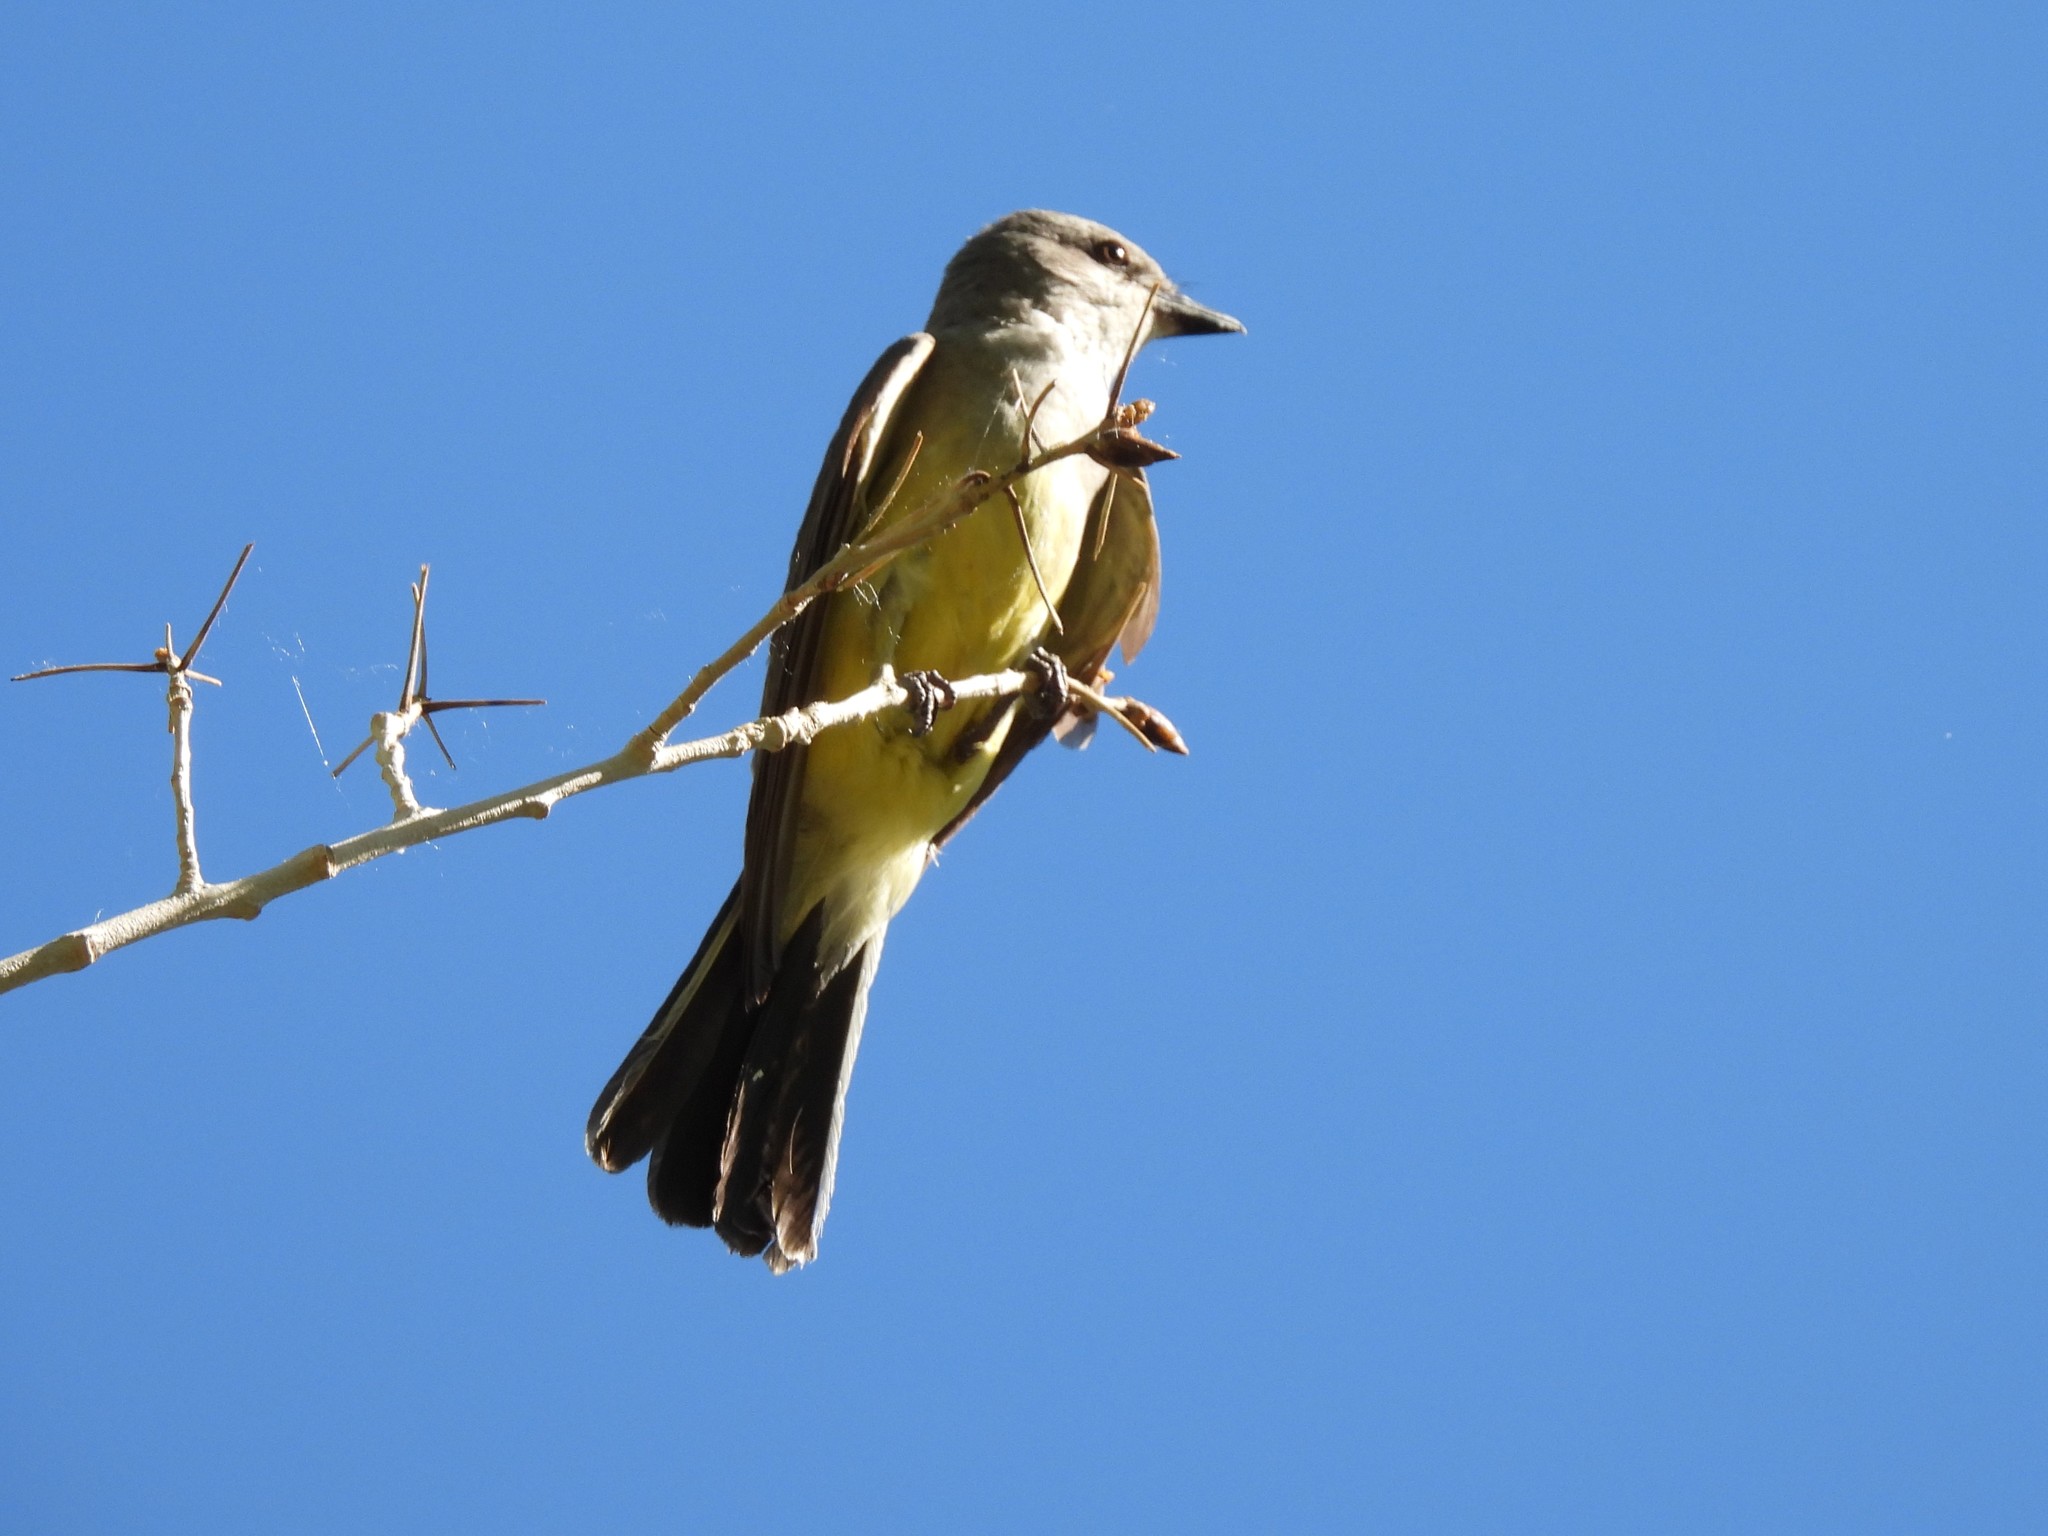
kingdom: Animalia
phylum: Chordata
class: Aves
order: Passeriformes
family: Tyrannidae
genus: Tyrannus
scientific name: Tyrannus verticalis
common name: Western kingbird
